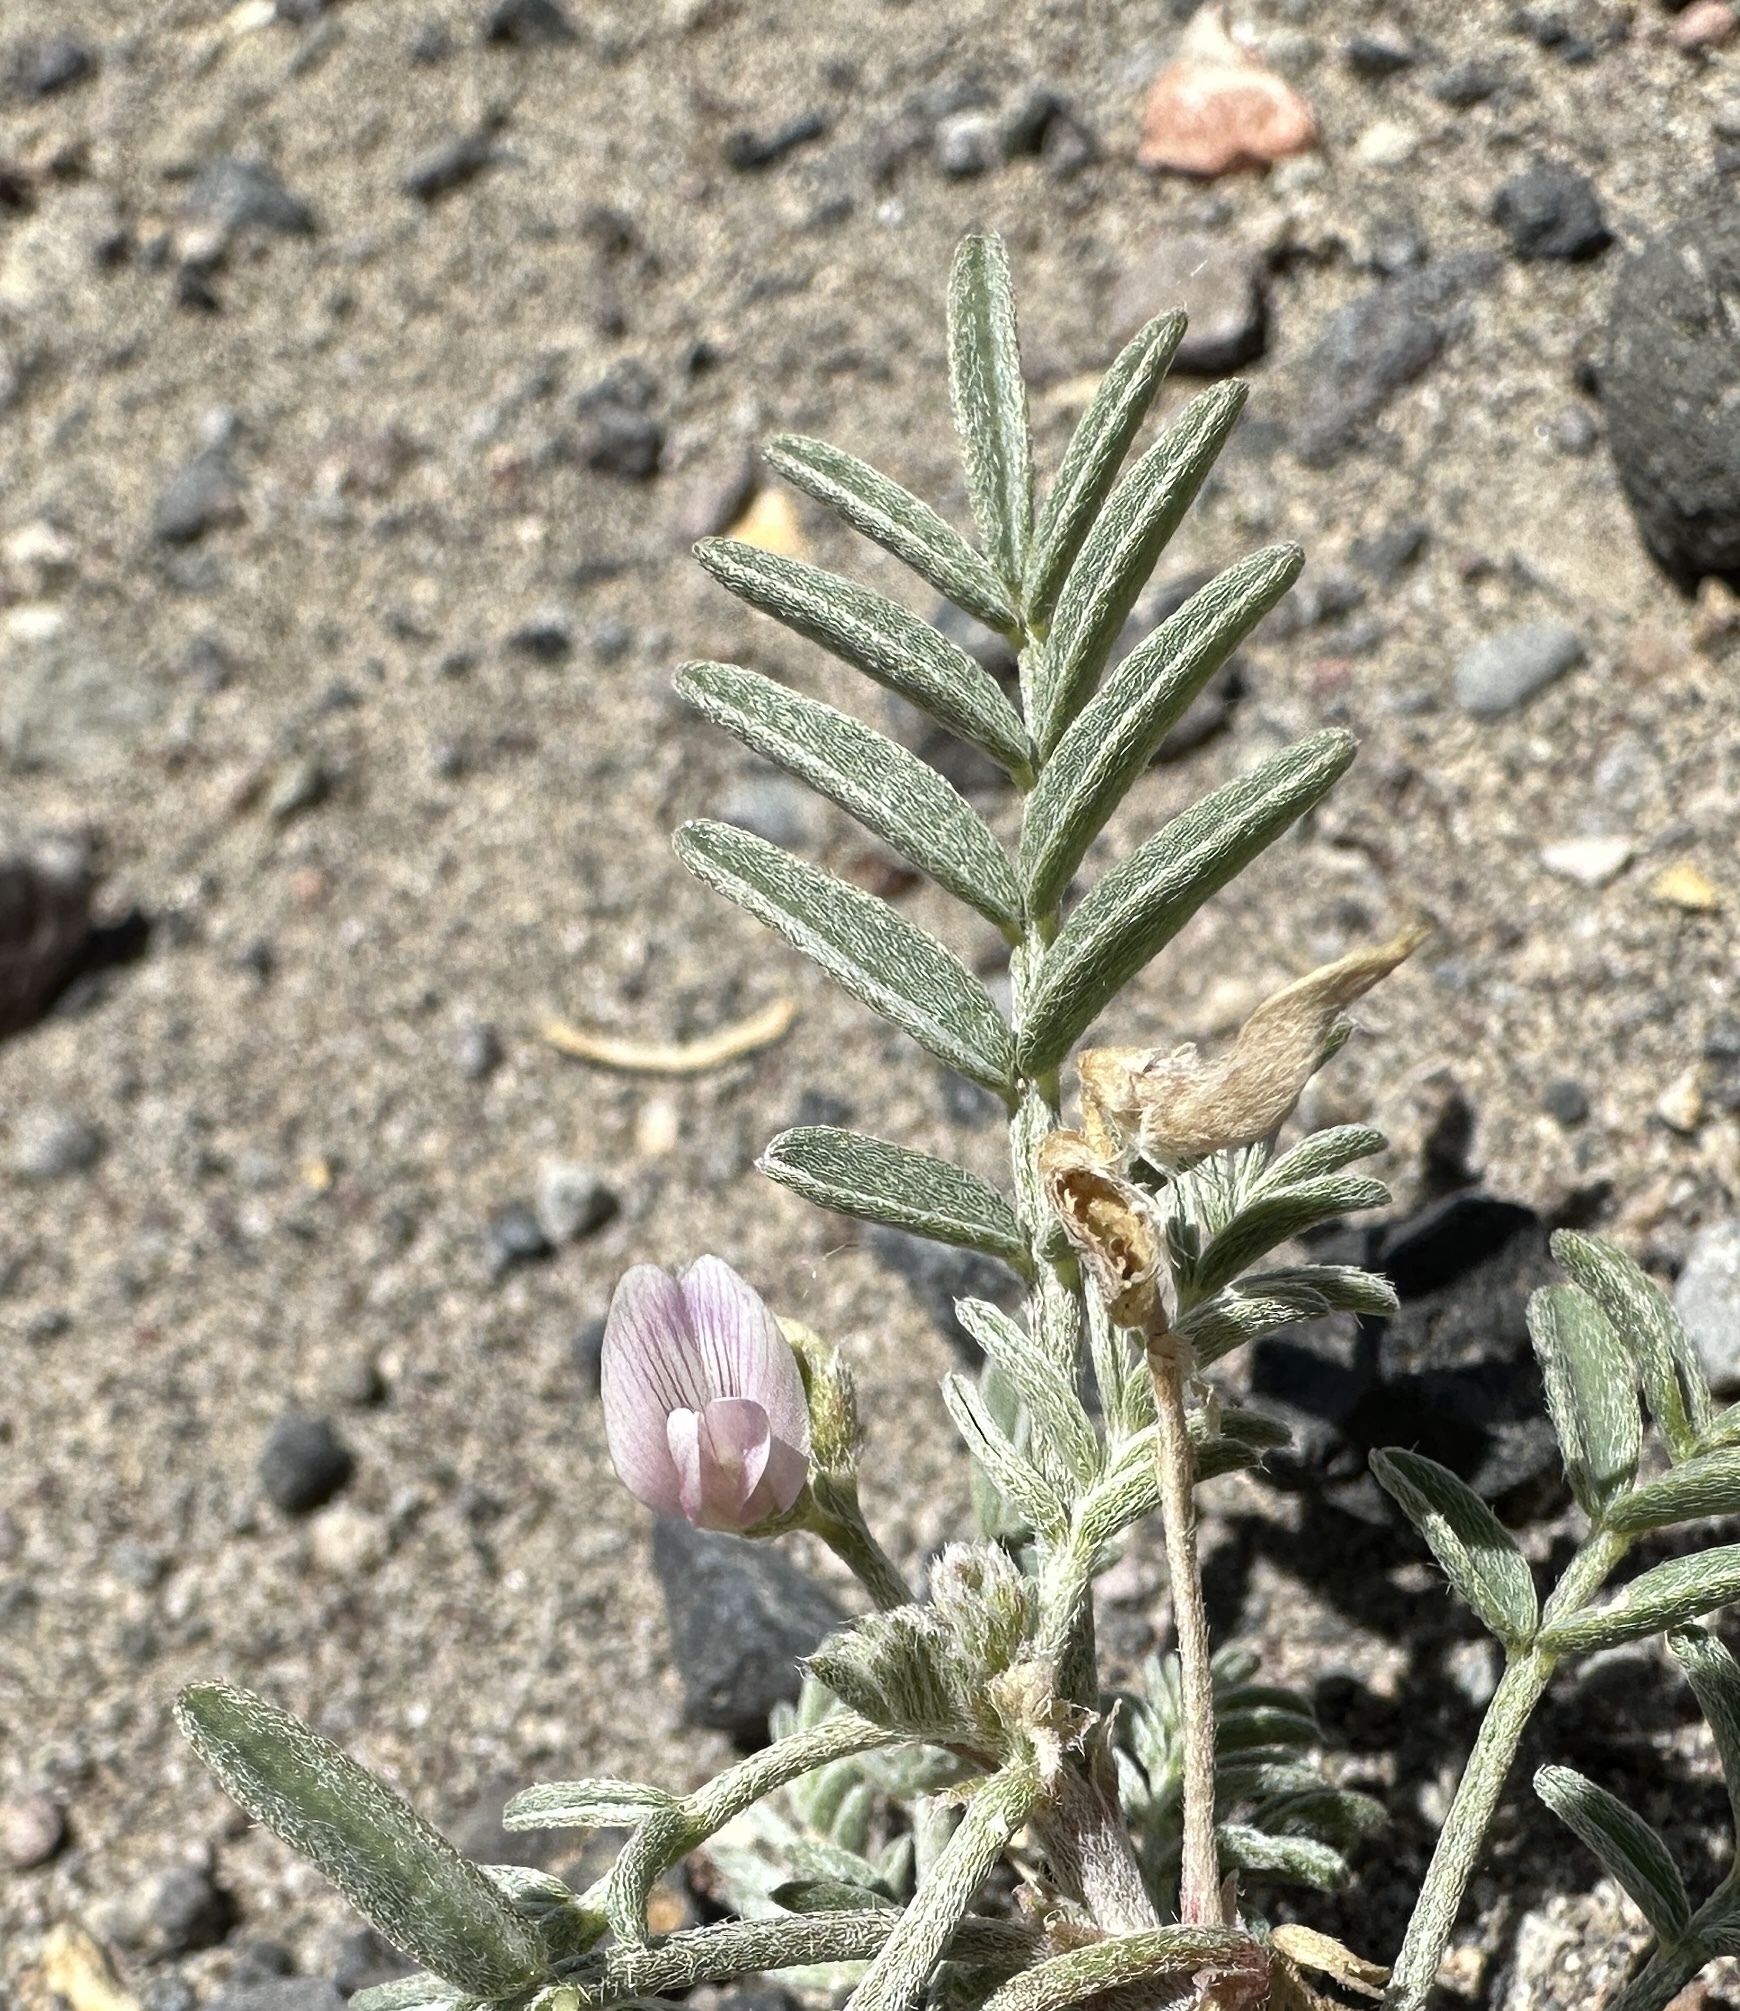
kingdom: Plantae
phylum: Tracheophyta
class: Magnoliopsida
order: Fabales
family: Fabaceae
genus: Astragalus
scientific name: Astragalus geyeri
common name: Geyer's milkvetch
